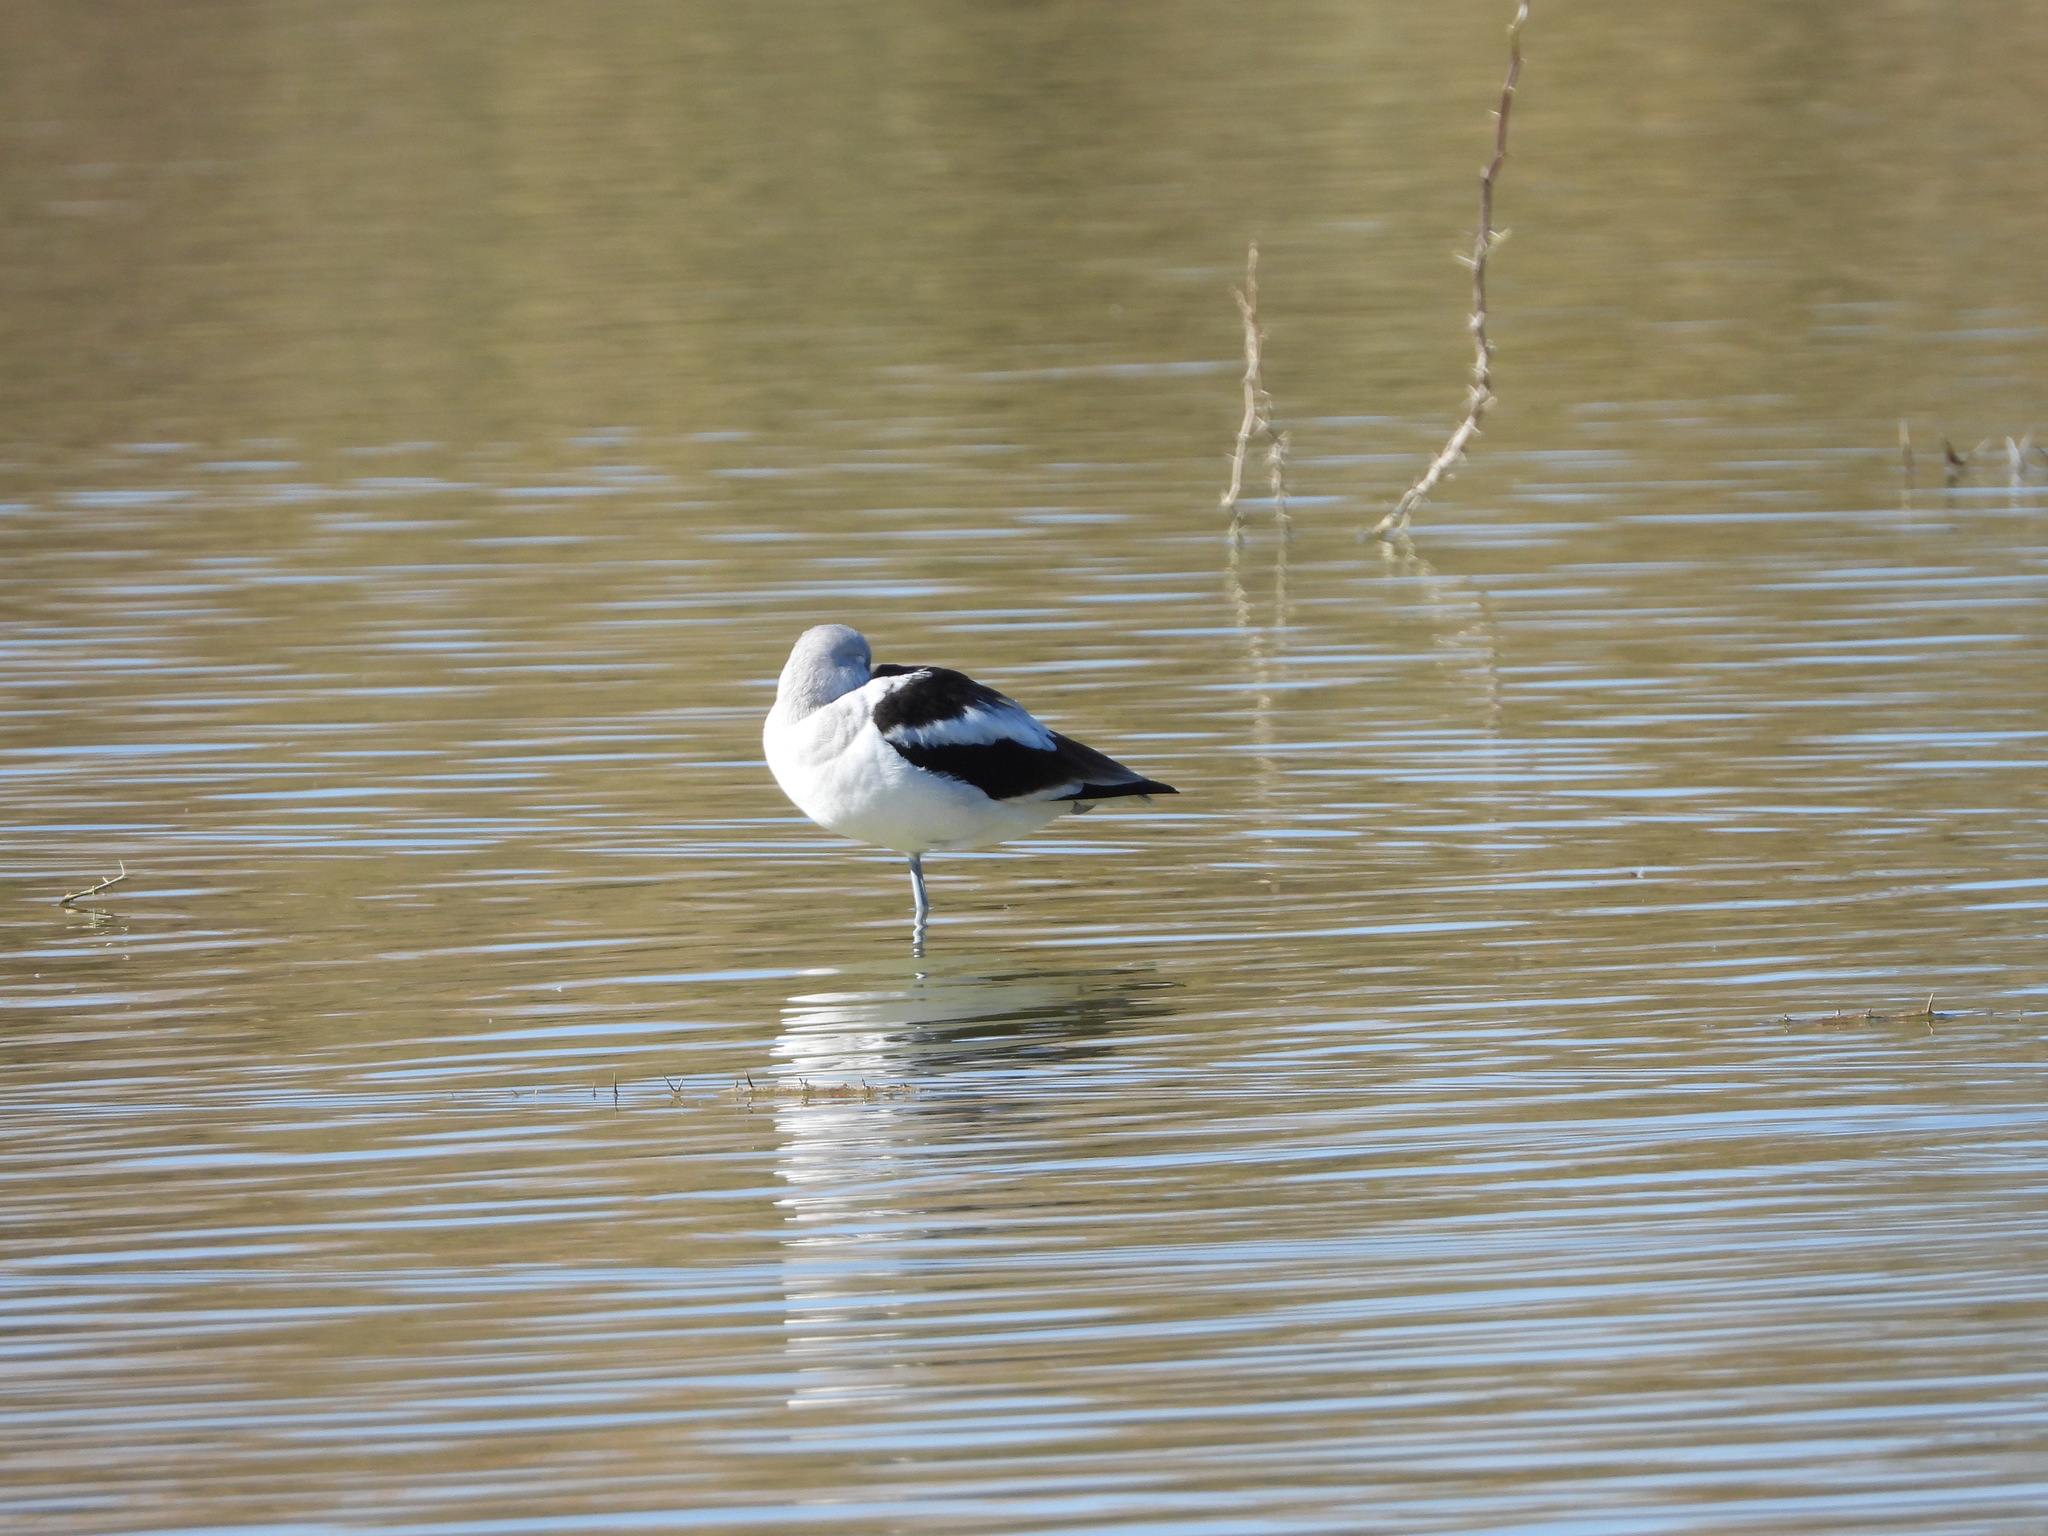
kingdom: Animalia
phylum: Chordata
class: Aves
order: Charadriiformes
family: Recurvirostridae
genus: Recurvirostra
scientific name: Recurvirostra americana
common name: American avocet
